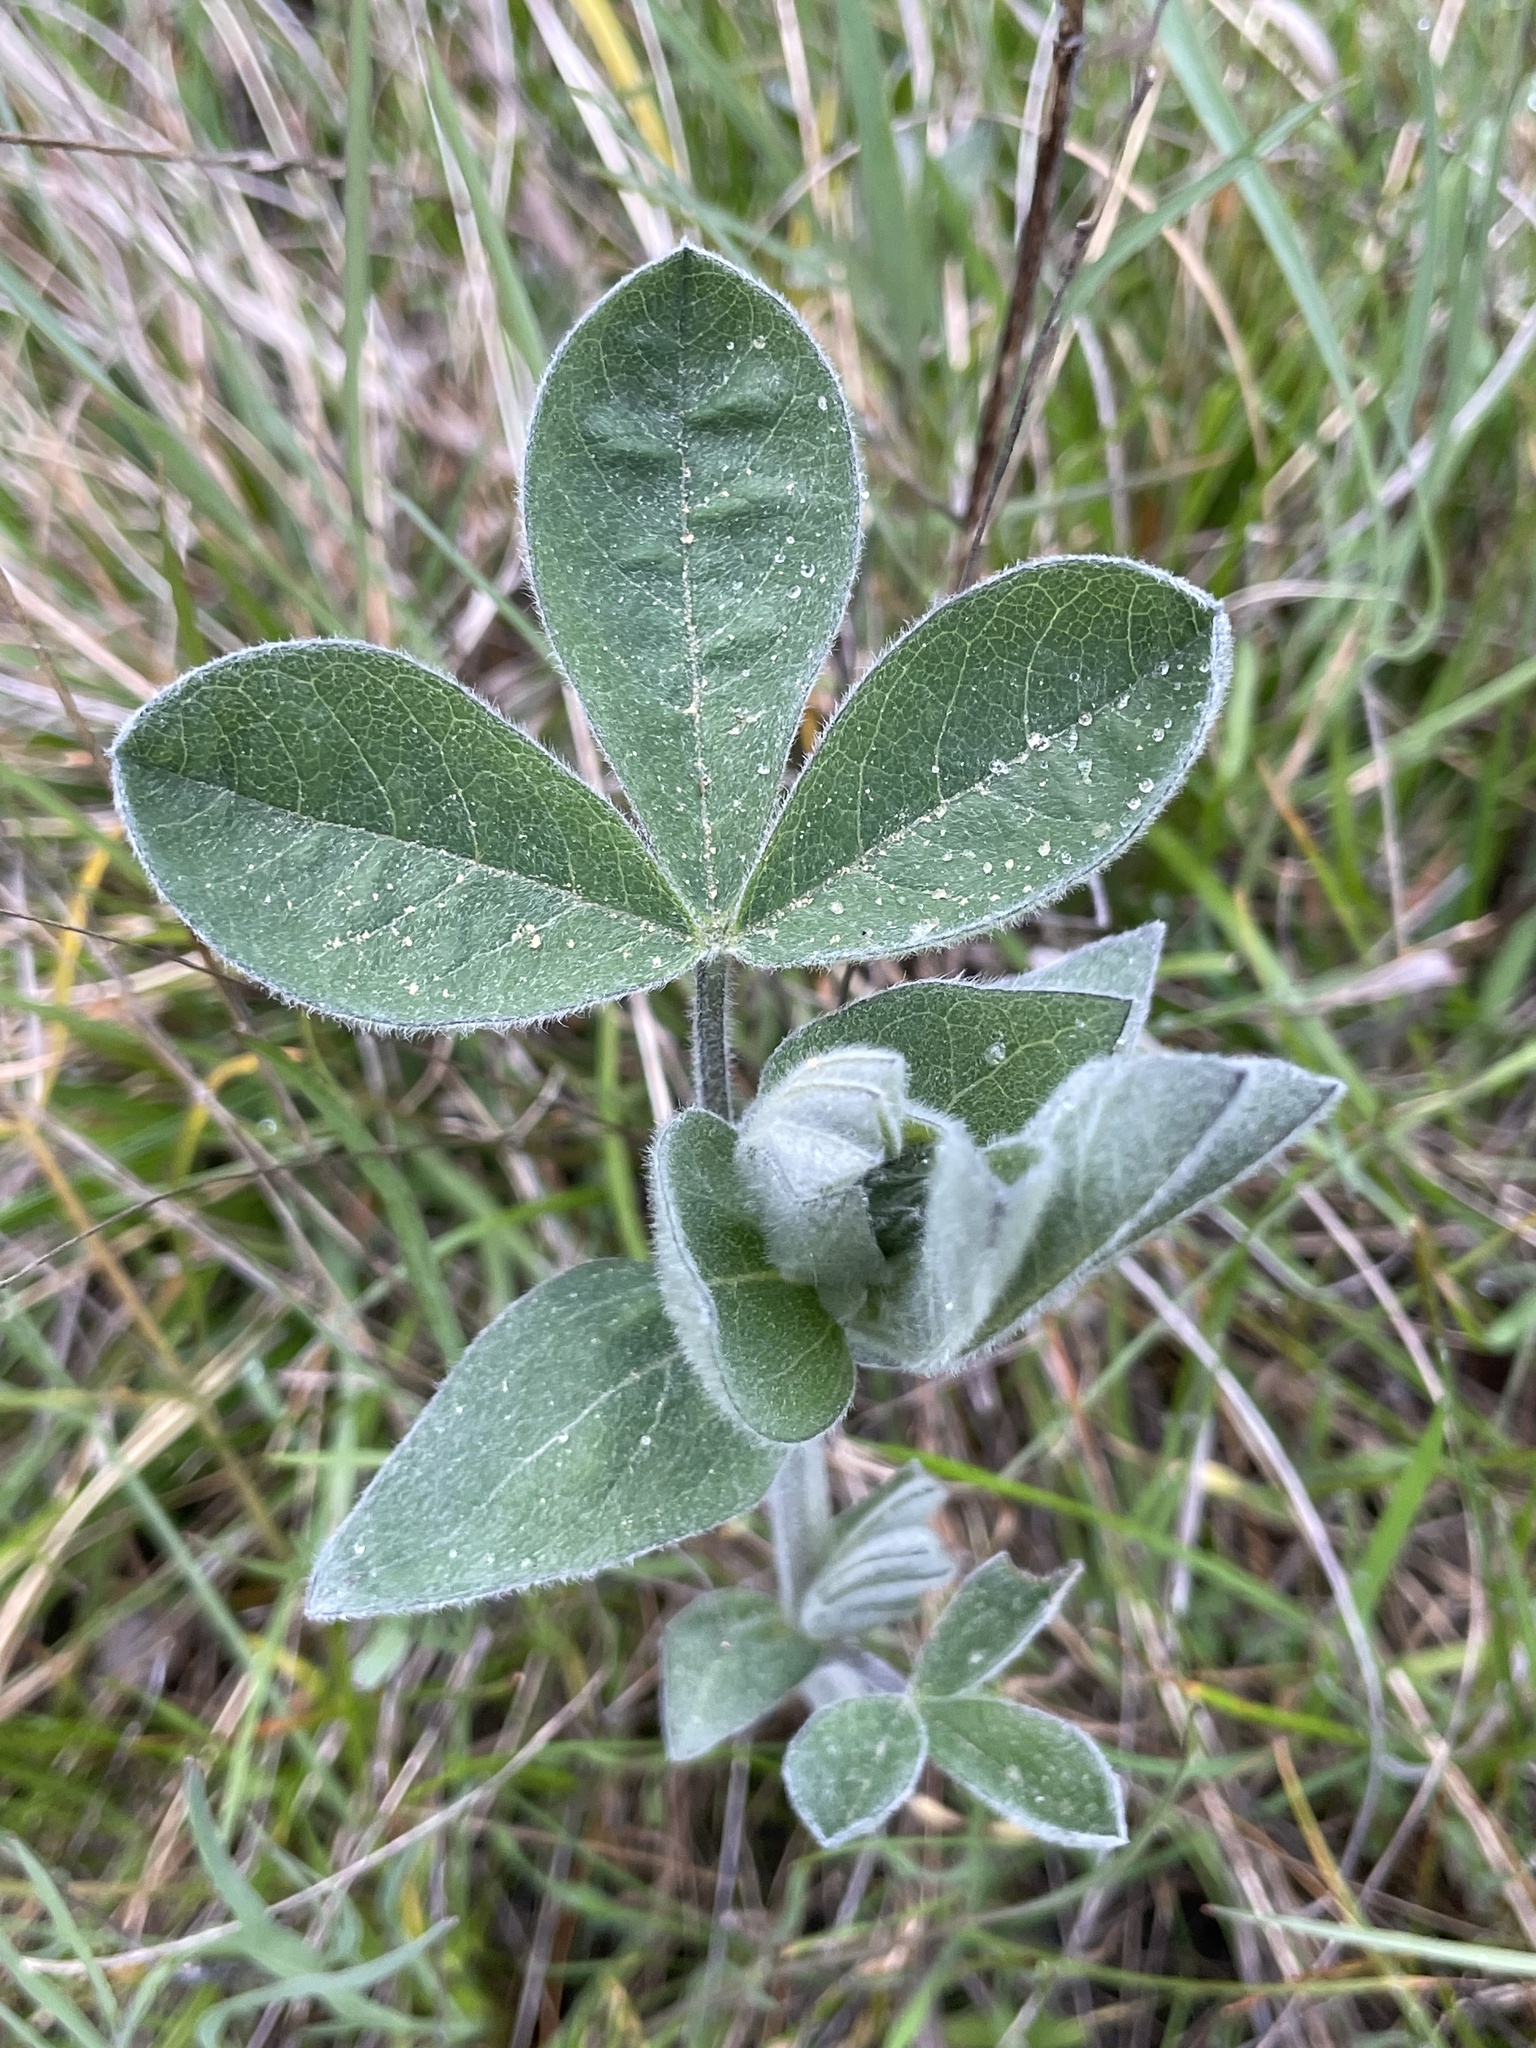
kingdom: Plantae
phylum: Tracheophyta
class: Magnoliopsida
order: Fabales
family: Fabaceae
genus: Thermopsis
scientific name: Thermopsis californica
